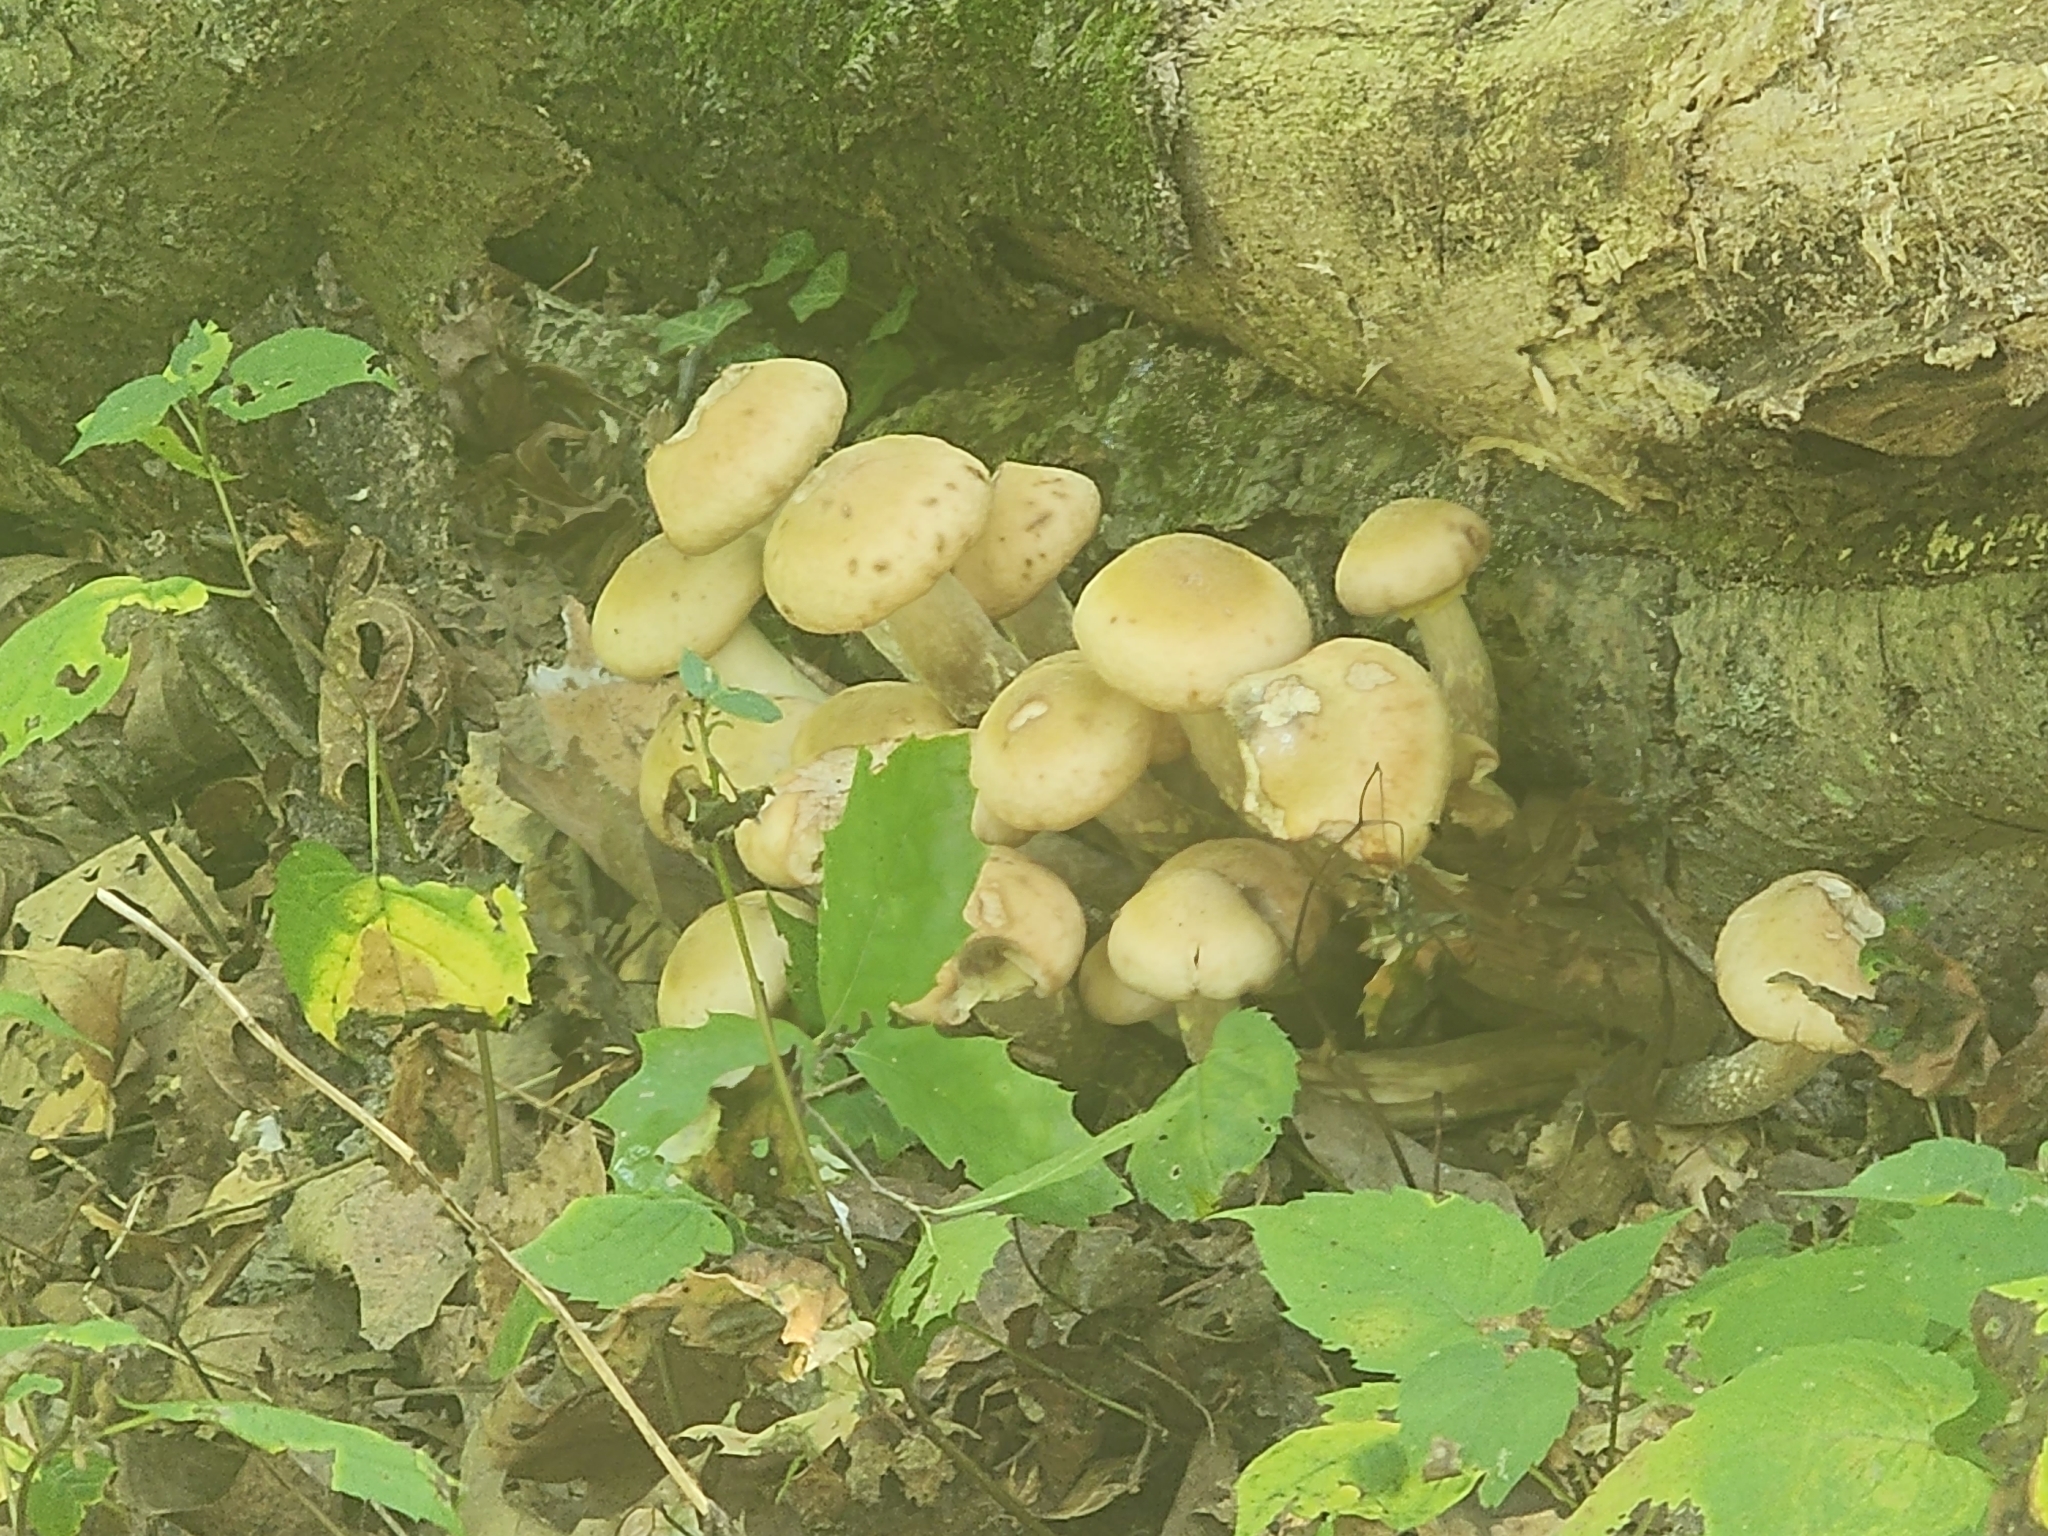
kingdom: Fungi
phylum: Basidiomycota
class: Agaricomycetes
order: Agaricales
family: Physalacriaceae
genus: Armillaria
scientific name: Armillaria mellea
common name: Honey fungus
